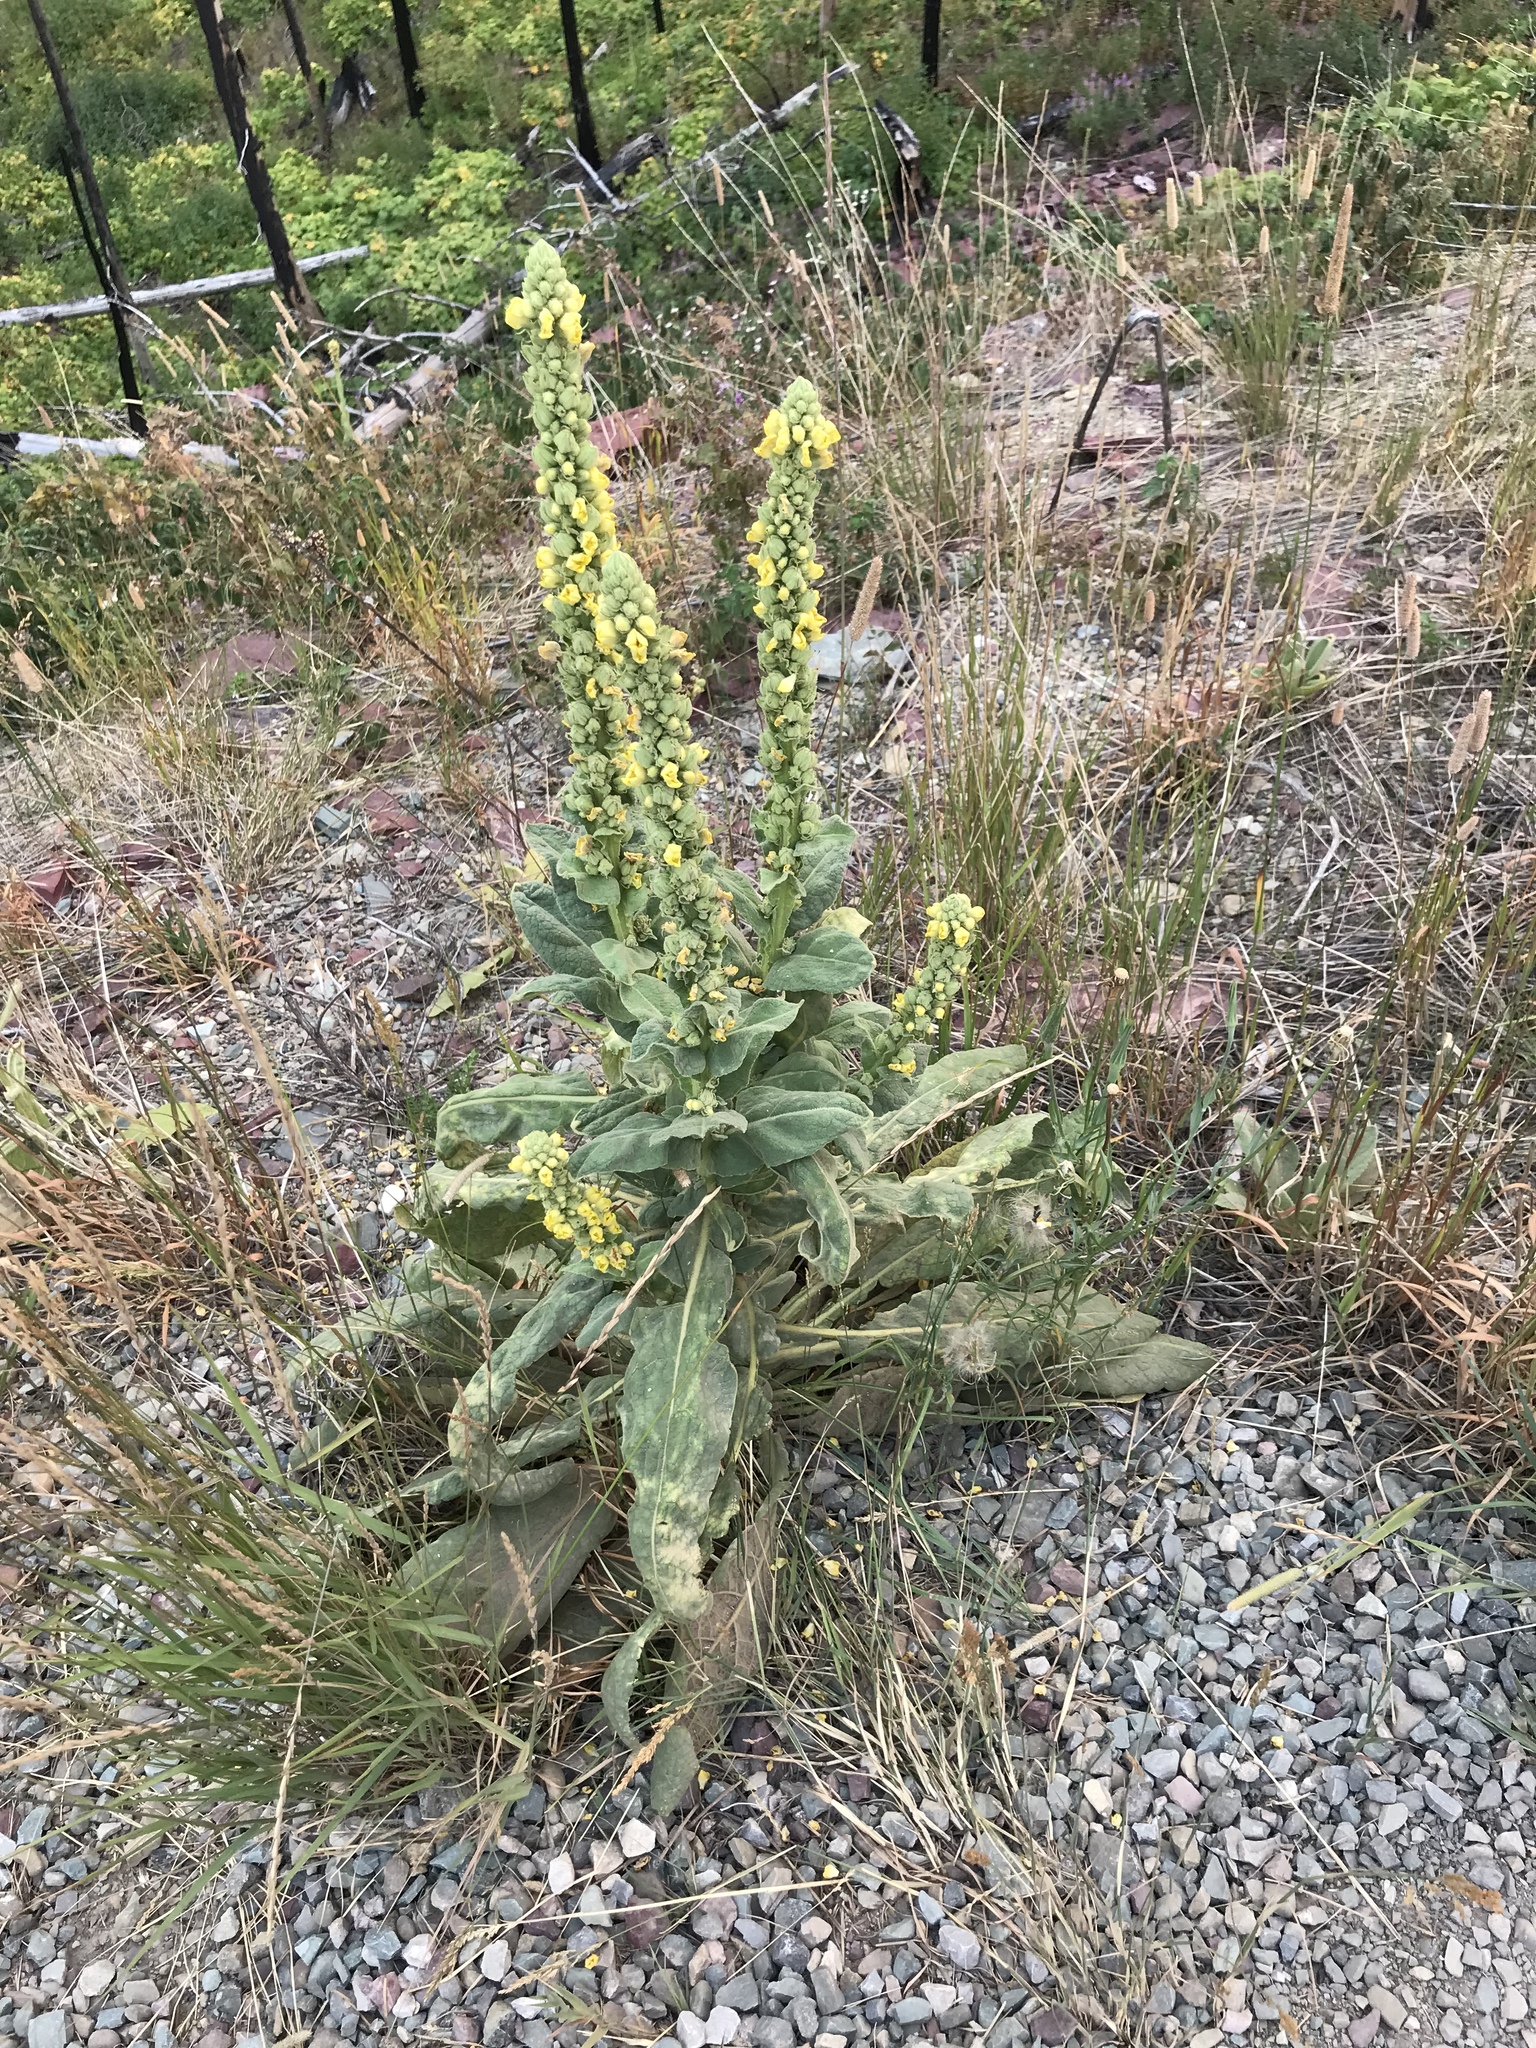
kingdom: Plantae
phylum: Tracheophyta
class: Magnoliopsida
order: Lamiales
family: Scrophulariaceae
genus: Verbascum
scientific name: Verbascum thapsus
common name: Common mullein
